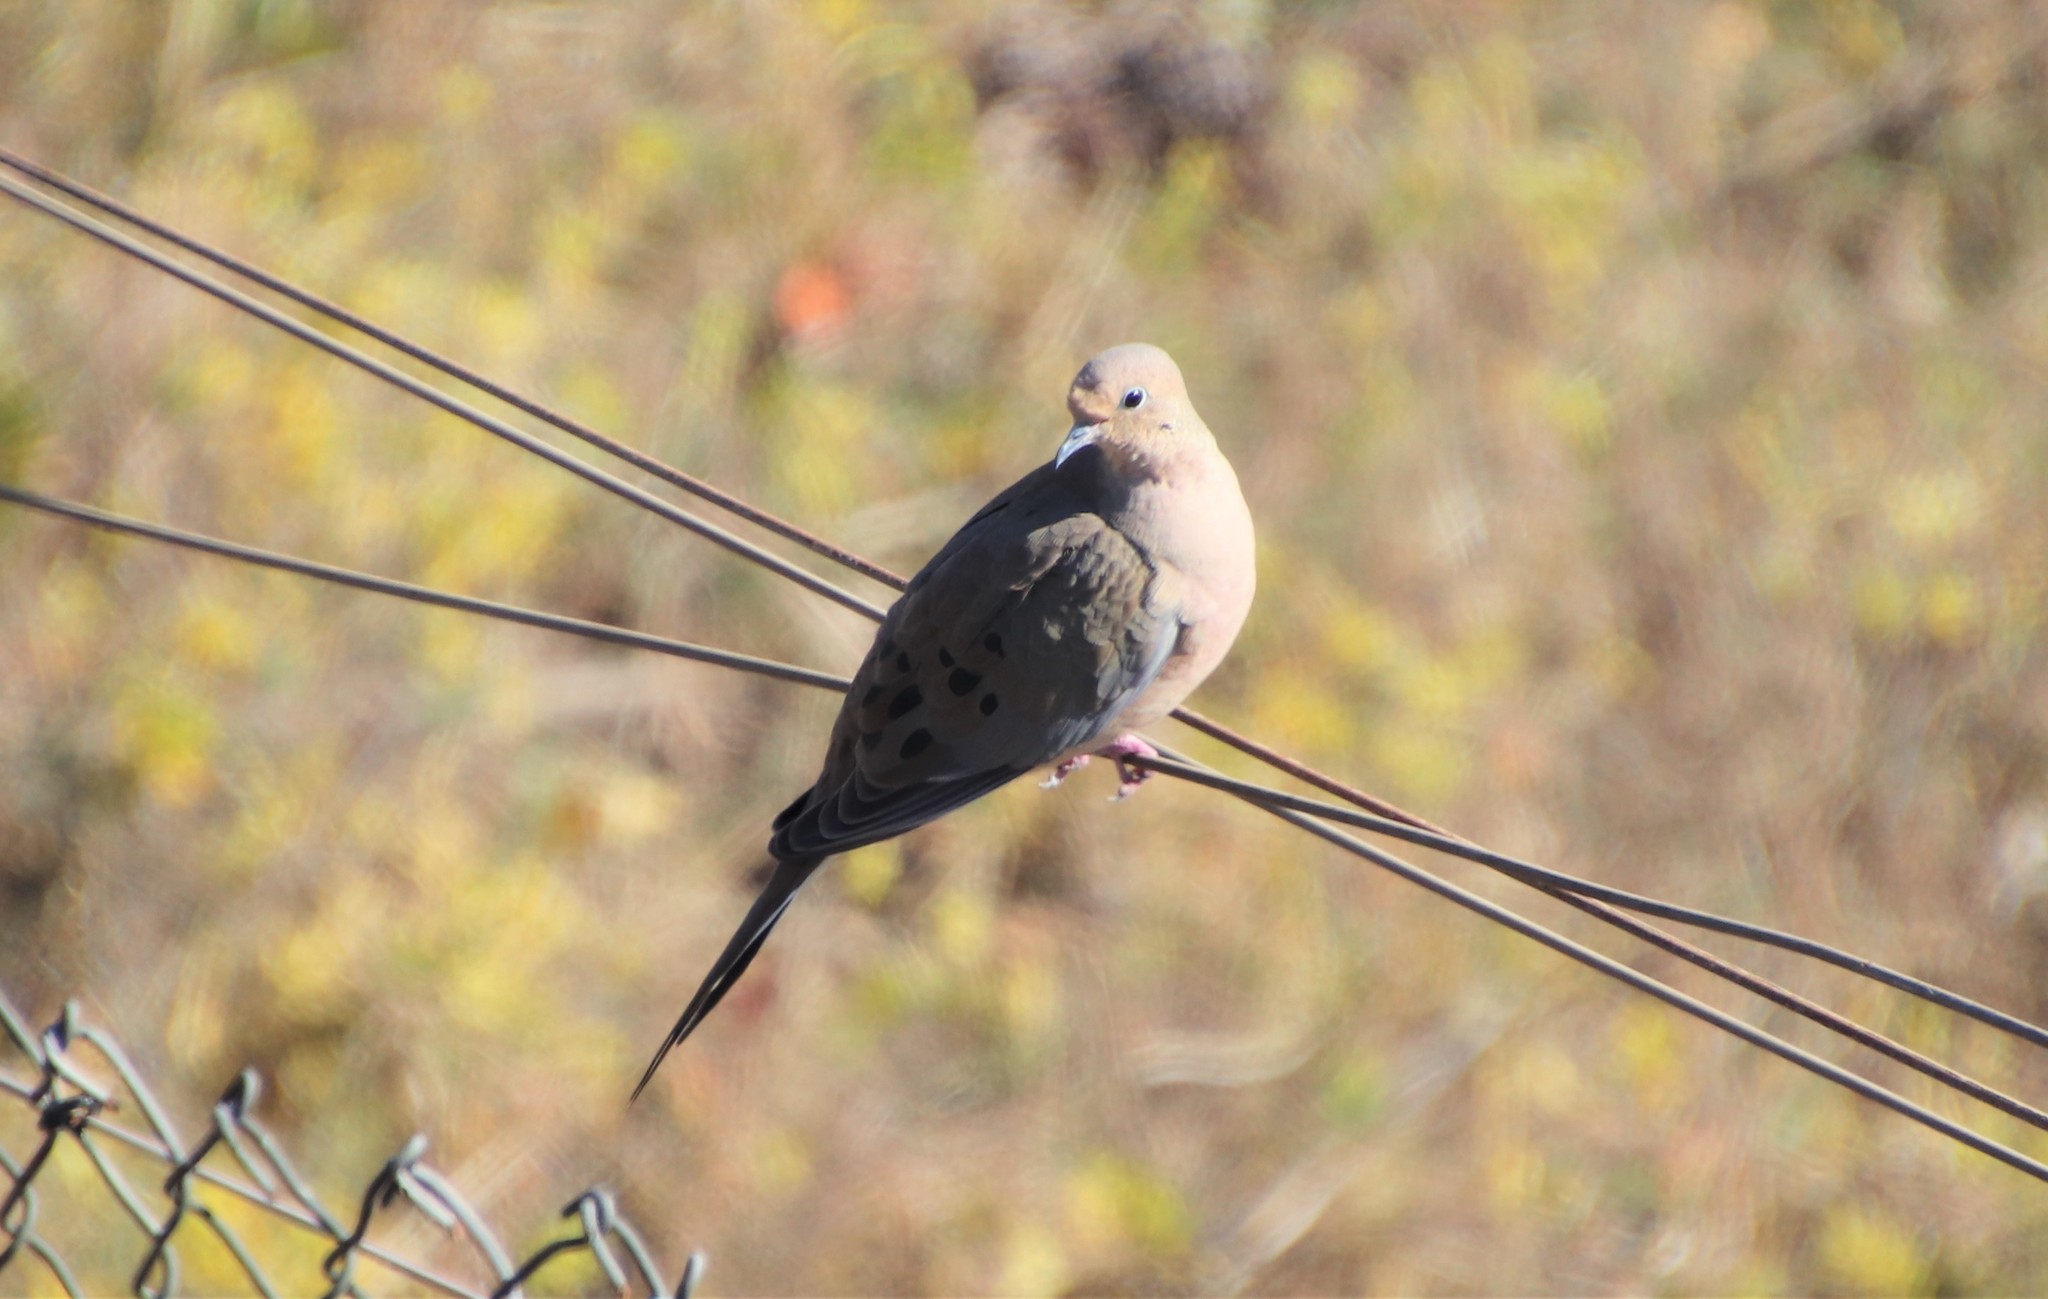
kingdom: Animalia
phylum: Chordata
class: Aves
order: Columbiformes
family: Columbidae
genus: Zenaida
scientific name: Zenaida macroura
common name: Mourning dove
